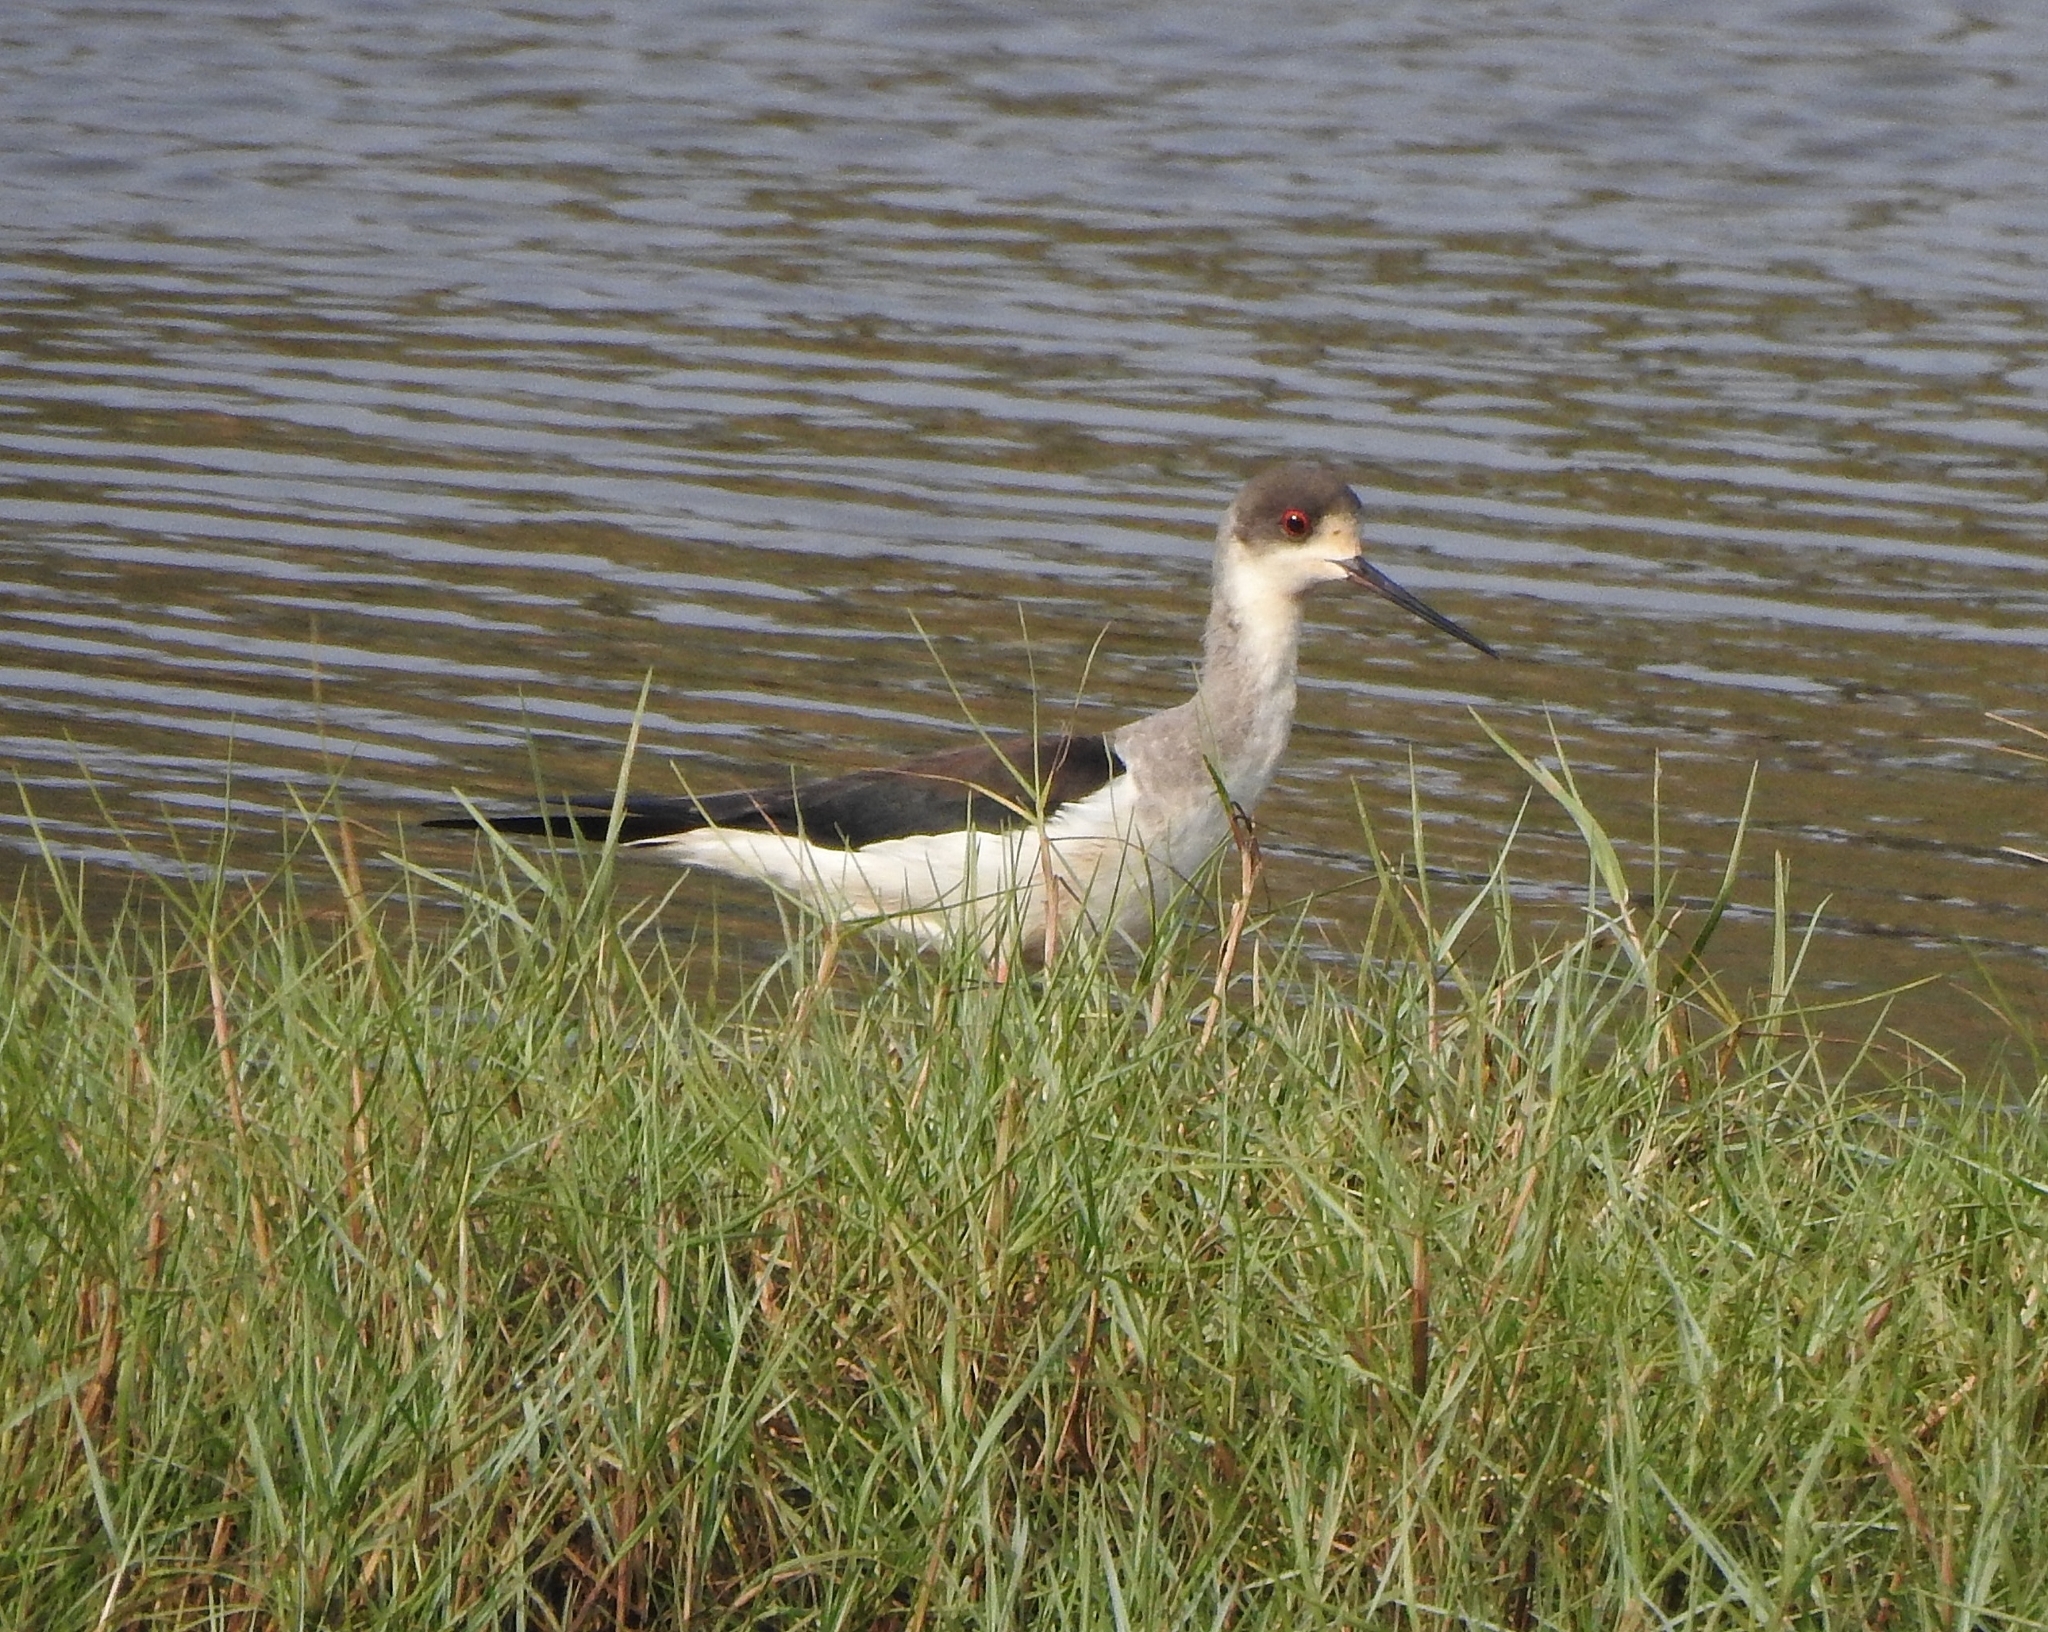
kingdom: Animalia
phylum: Chordata
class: Aves
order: Charadriiformes
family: Recurvirostridae
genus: Himantopus
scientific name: Himantopus himantopus
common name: Black-winged stilt
